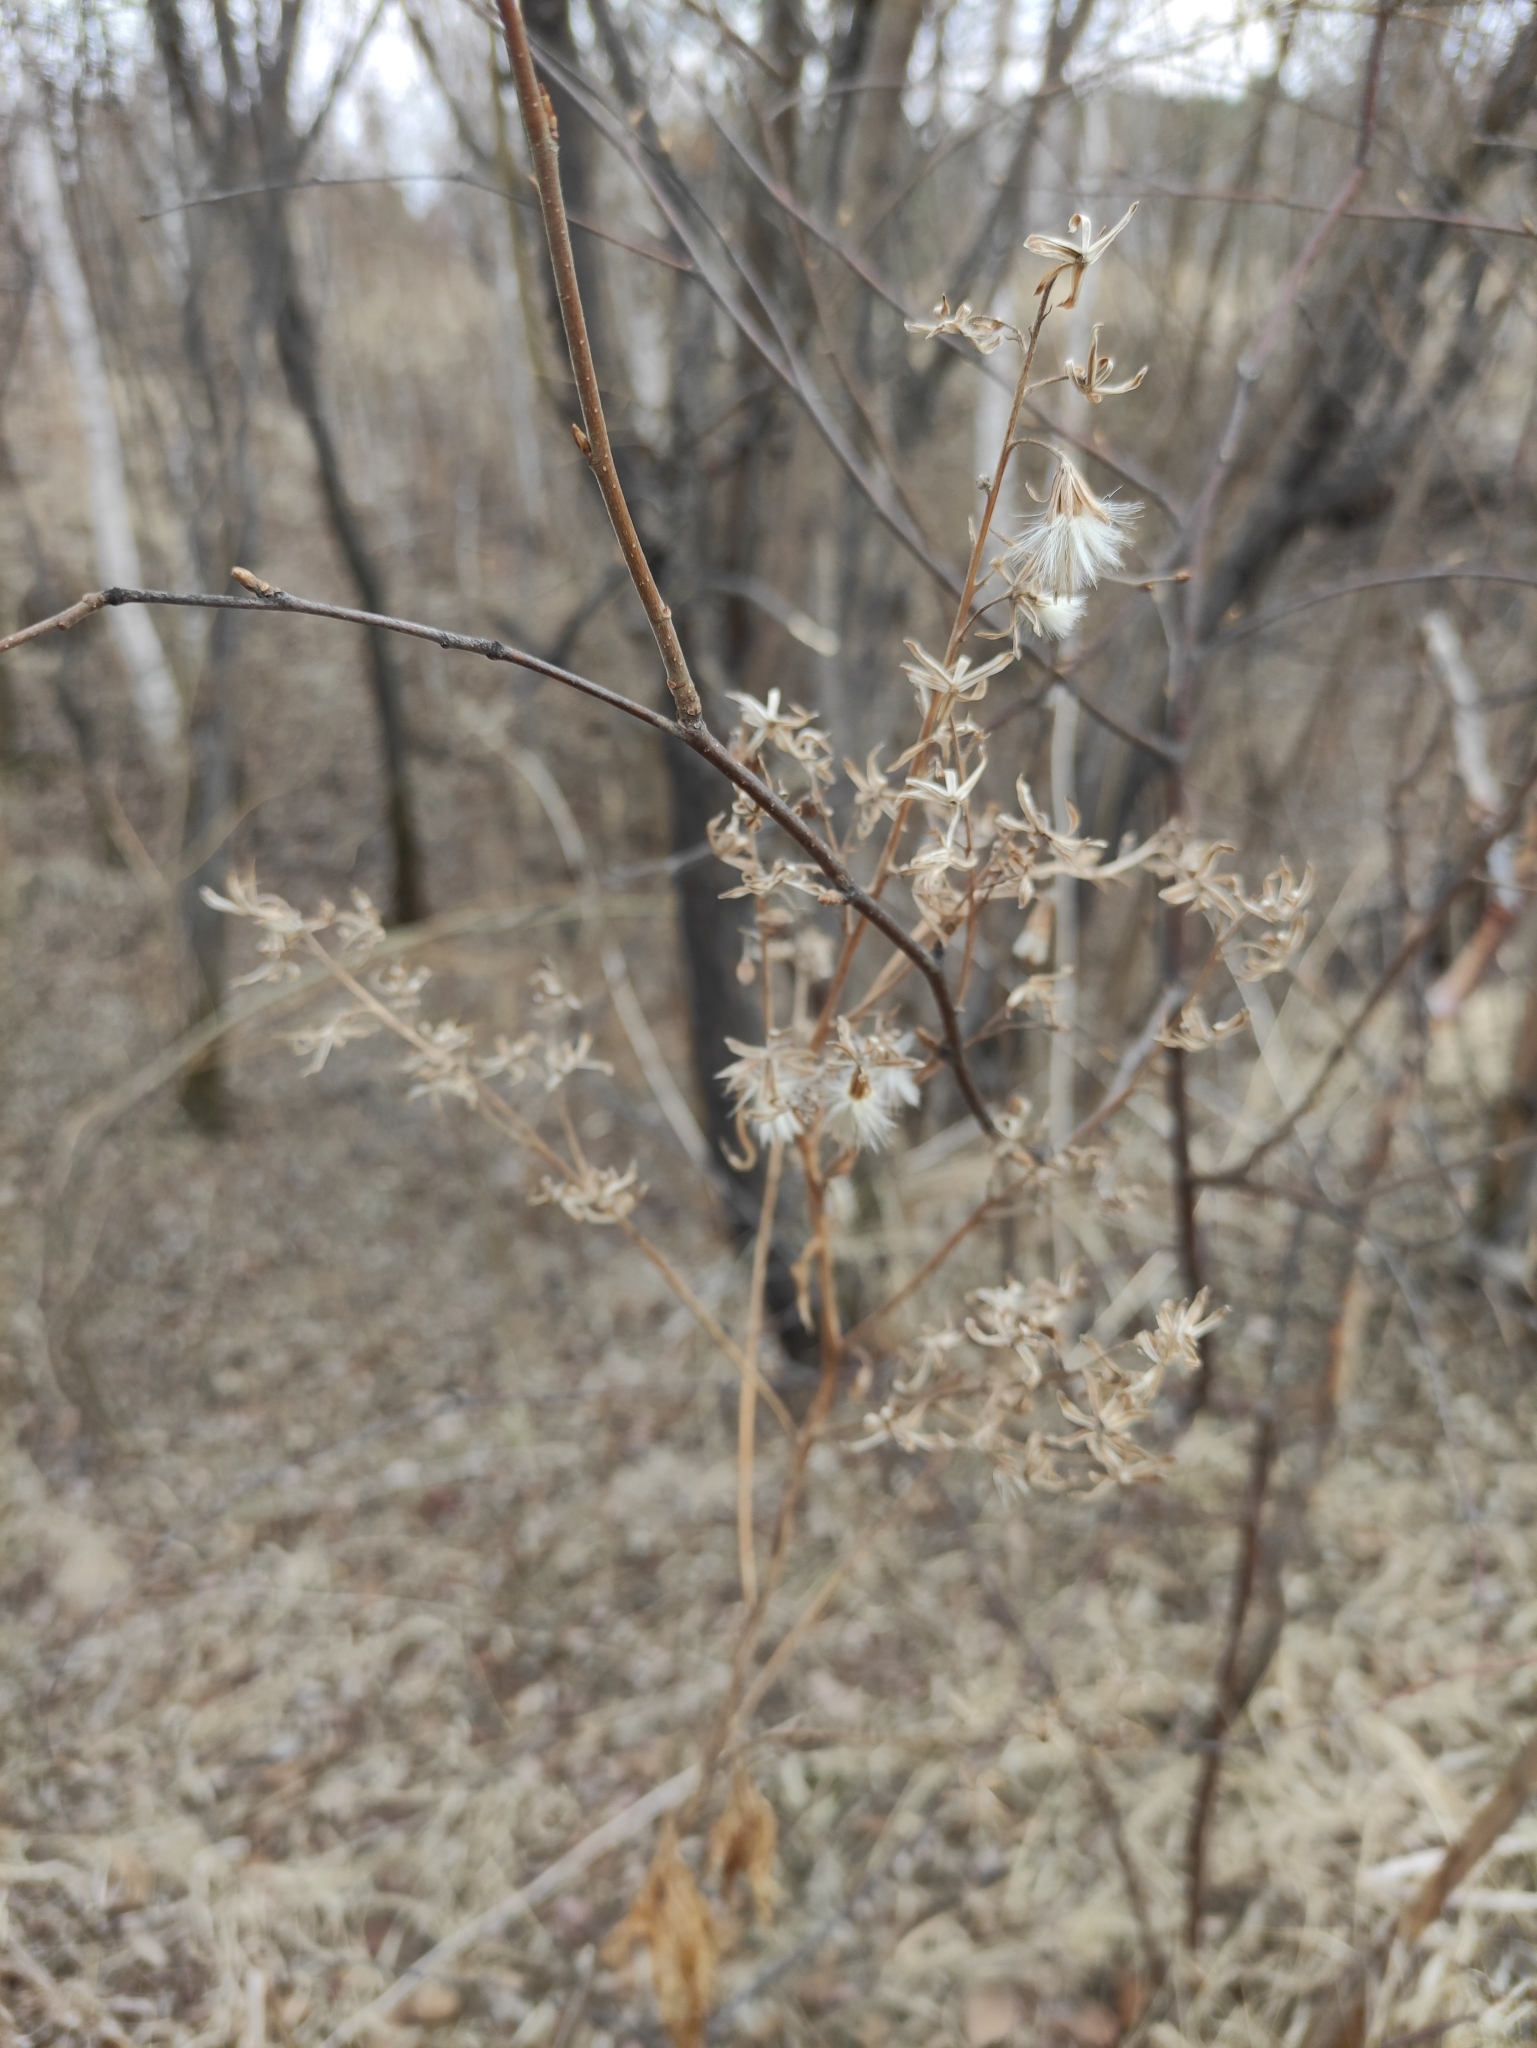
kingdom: Plantae
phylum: Tracheophyta
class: Magnoliopsida
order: Asterales
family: Asteraceae
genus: Parasenecio
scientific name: Parasenecio hastatus
